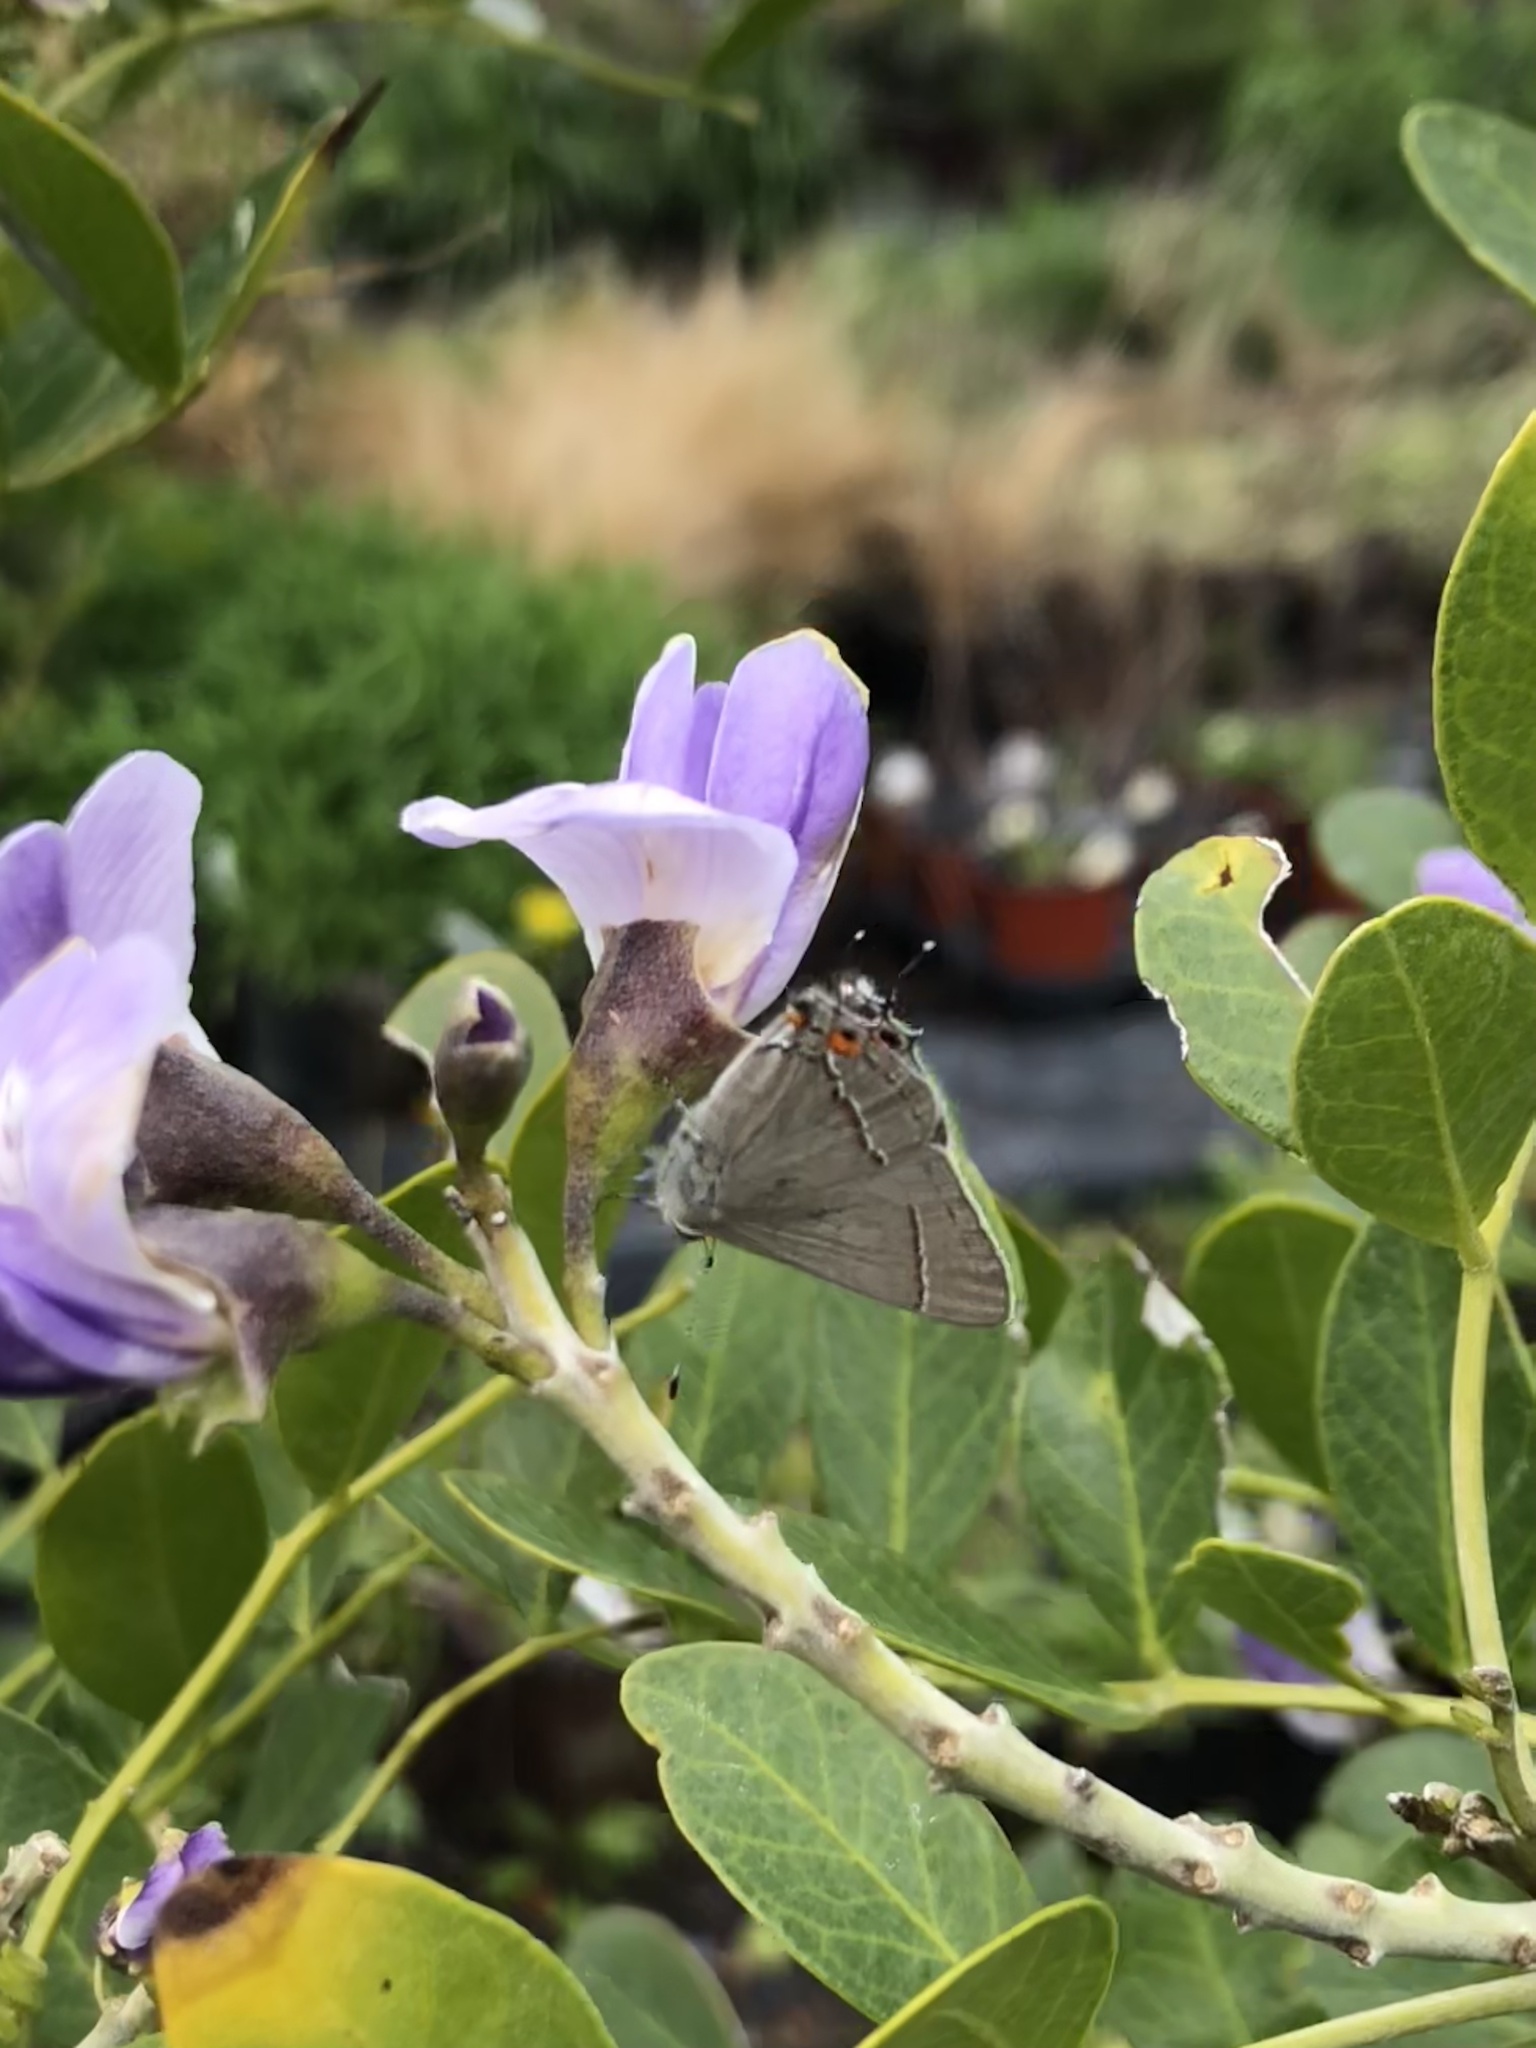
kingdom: Animalia
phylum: Arthropoda
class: Insecta
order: Lepidoptera
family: Lycaenidae
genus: Strymon
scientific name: Strymon melinus
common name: Gray hairstreak
